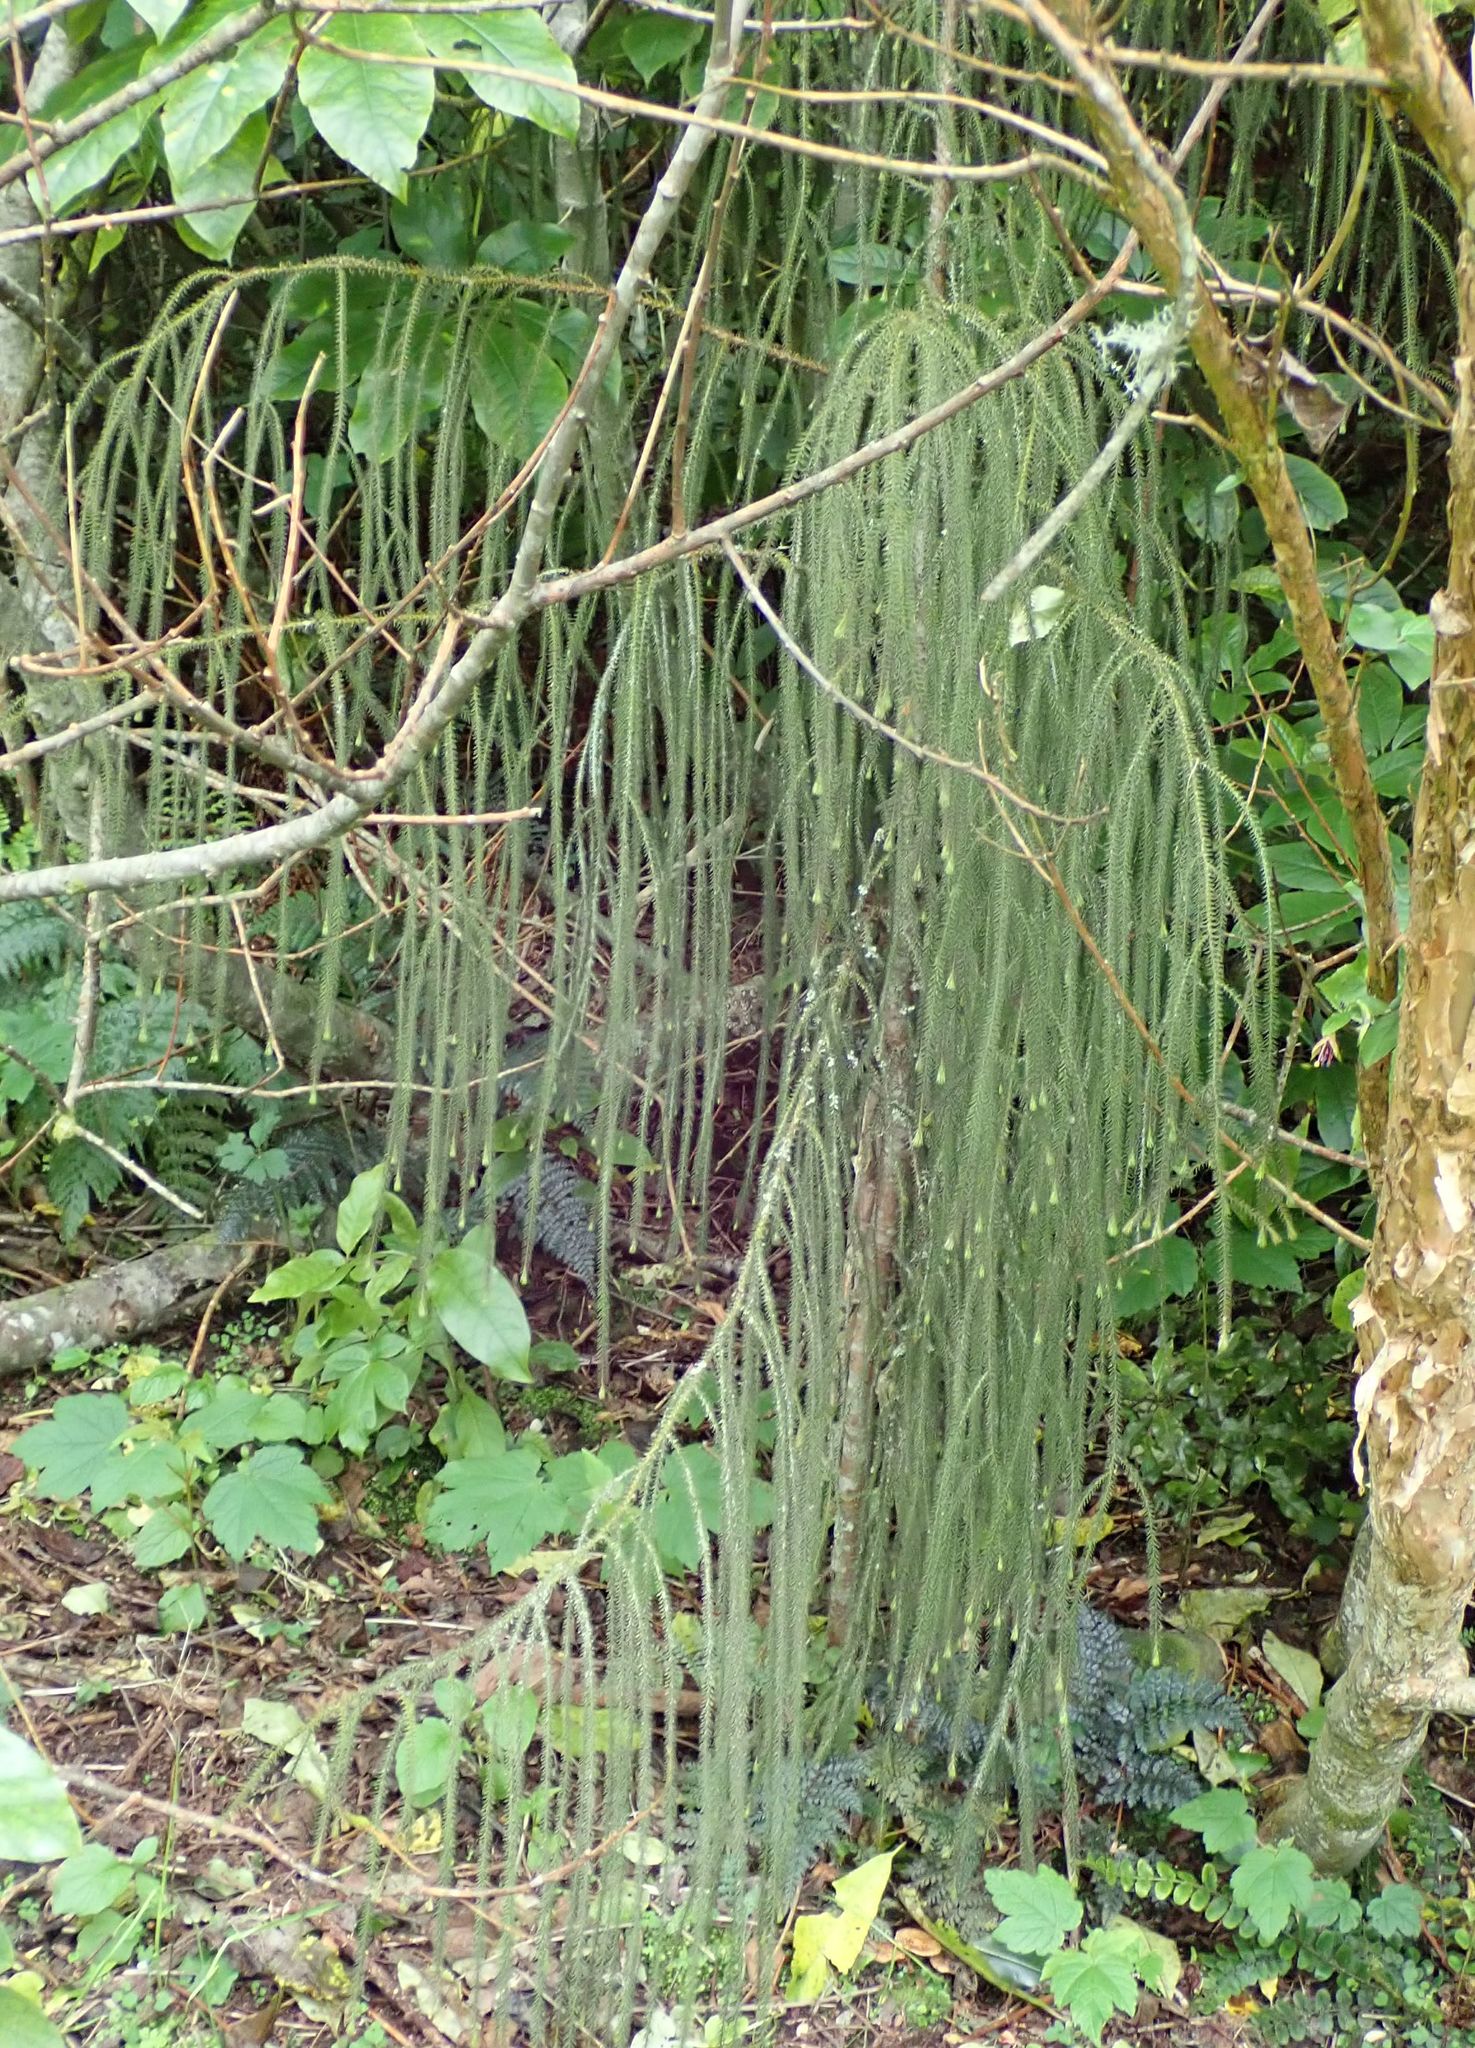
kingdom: Plantae
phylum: Tracheophyta
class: Pinopsida
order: Pinales
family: Podocarpaceae
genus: Dacrydium
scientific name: Dacrydium cupressinum
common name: Red pine
